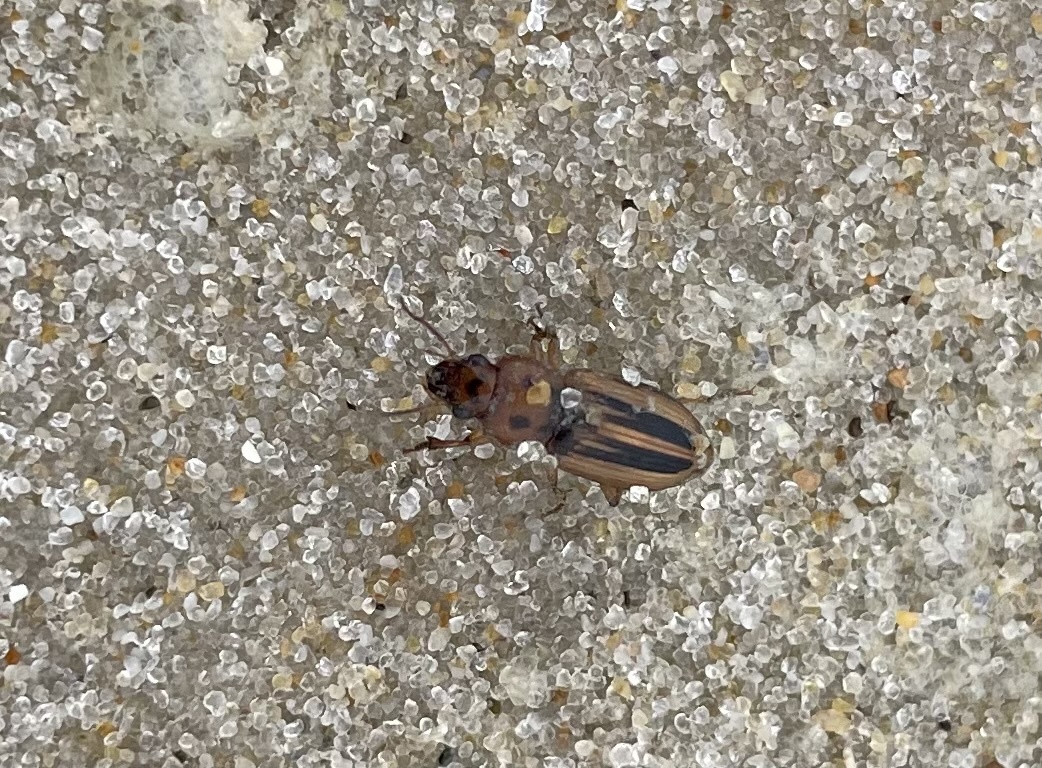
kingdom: Animalia
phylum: Arthropoda
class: Insecta
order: Coleoptera
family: Carabidae
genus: Stenolophus
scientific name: Stenolophus lineola
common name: Lined stenolophus
